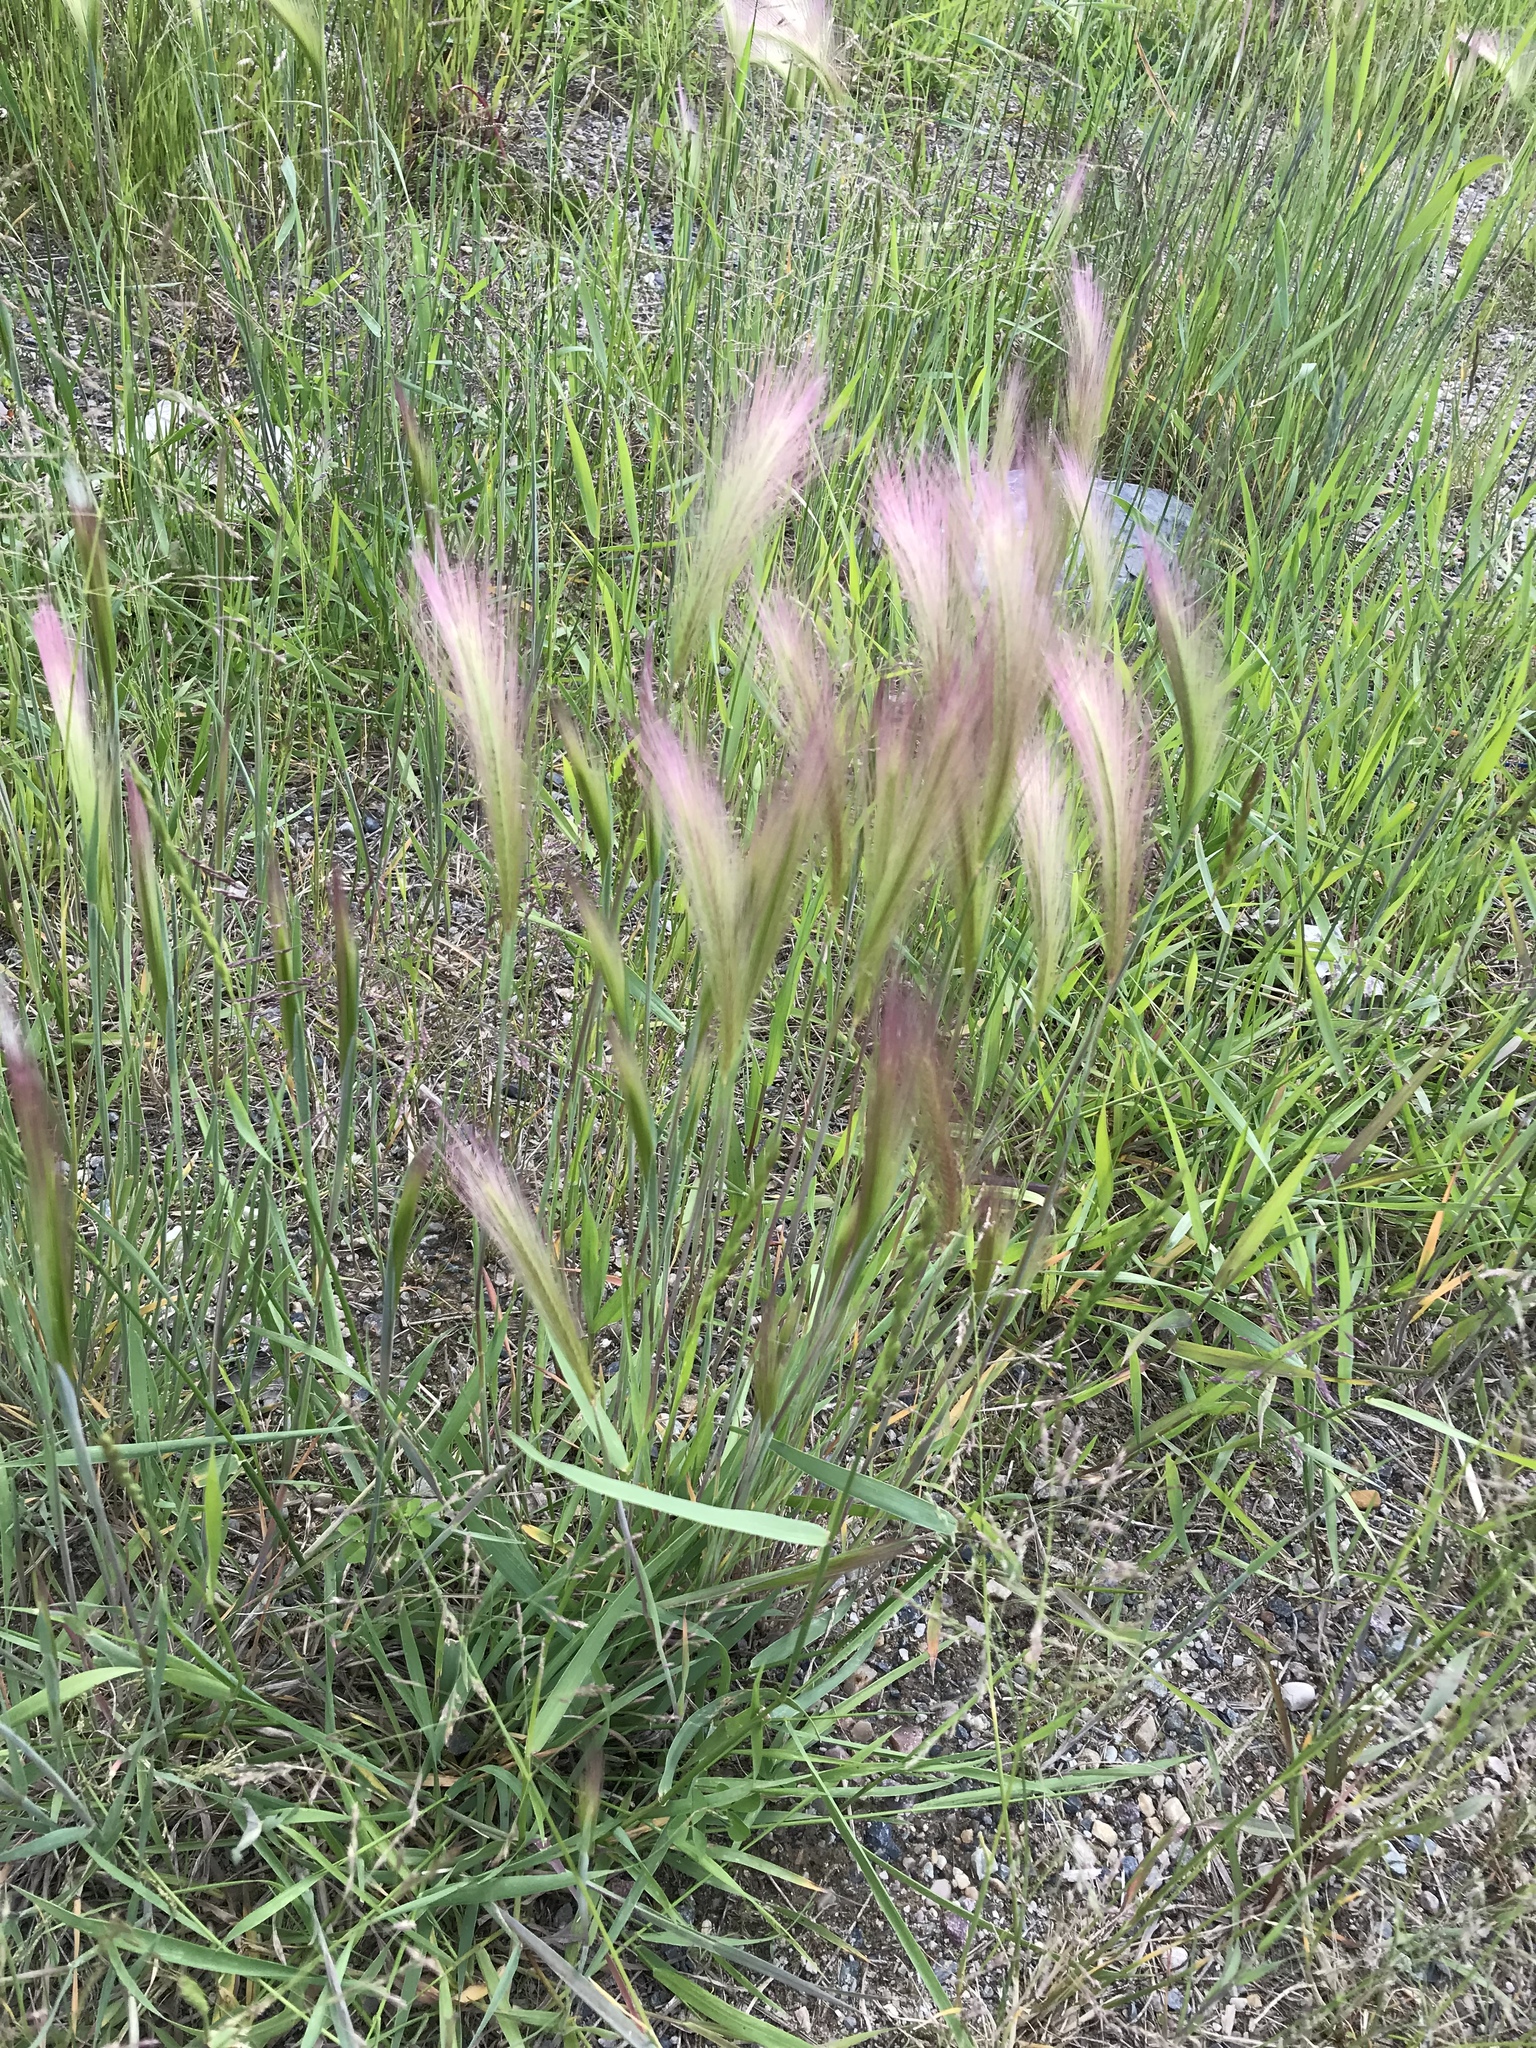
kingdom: Plantae
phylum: Tracheophyta
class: Liliopsida
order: Poales
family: Poaceae
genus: Hordeum
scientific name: Hordeum jubatum
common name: Foxtail barley
